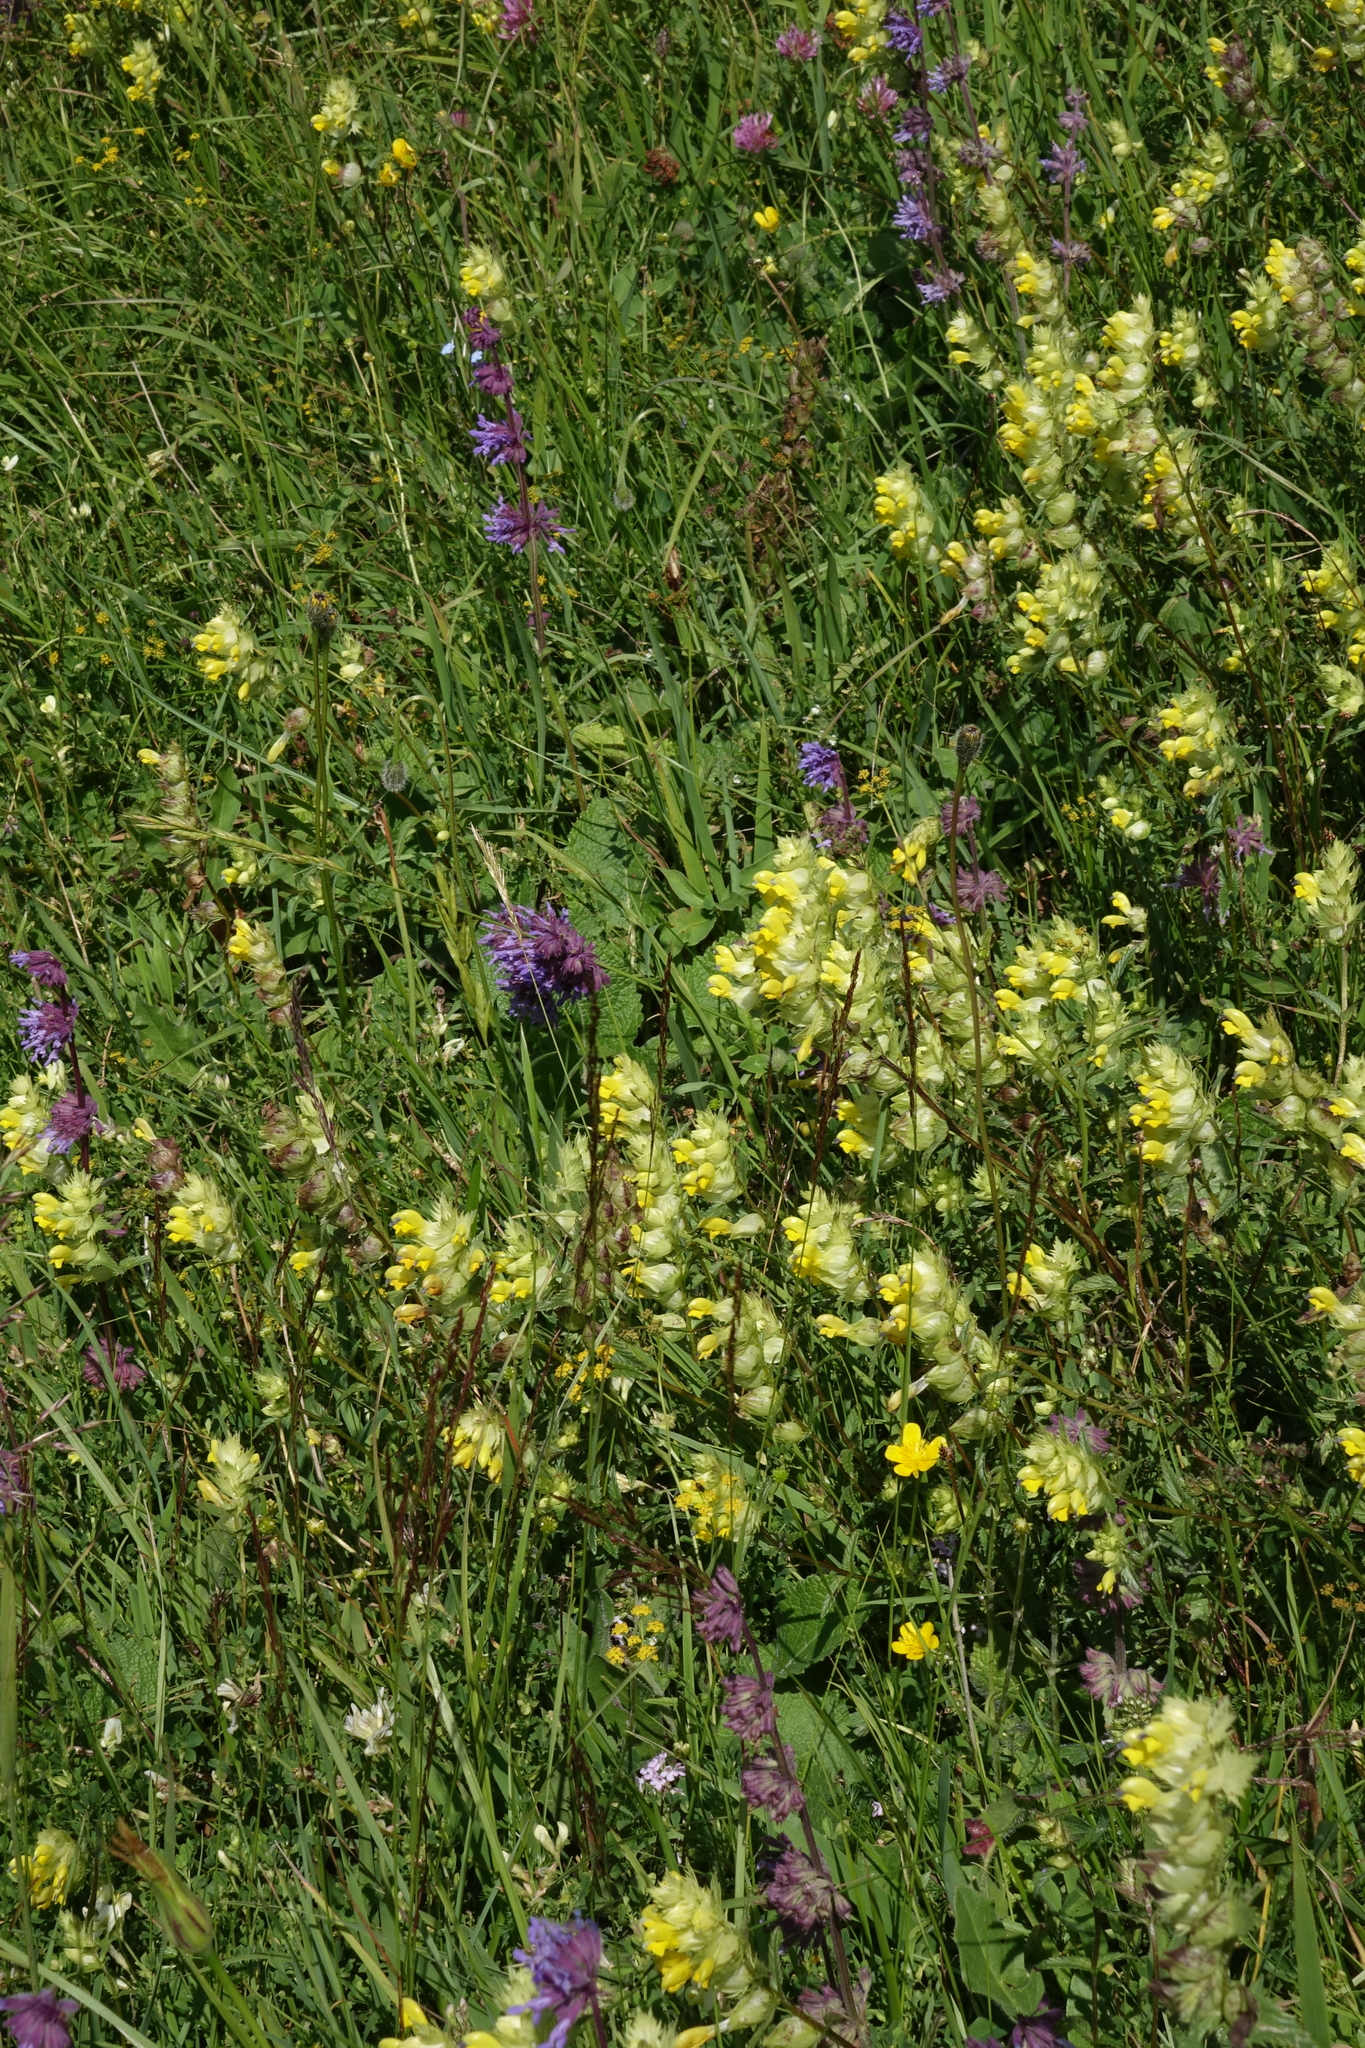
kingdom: Plantae
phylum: Tracheophyta
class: Magnoliopsida
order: Lamiales
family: Orobanchaceae
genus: Rhinanthus
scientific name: Rhinanthus serotinus
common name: Late-flowering yellow rattle
